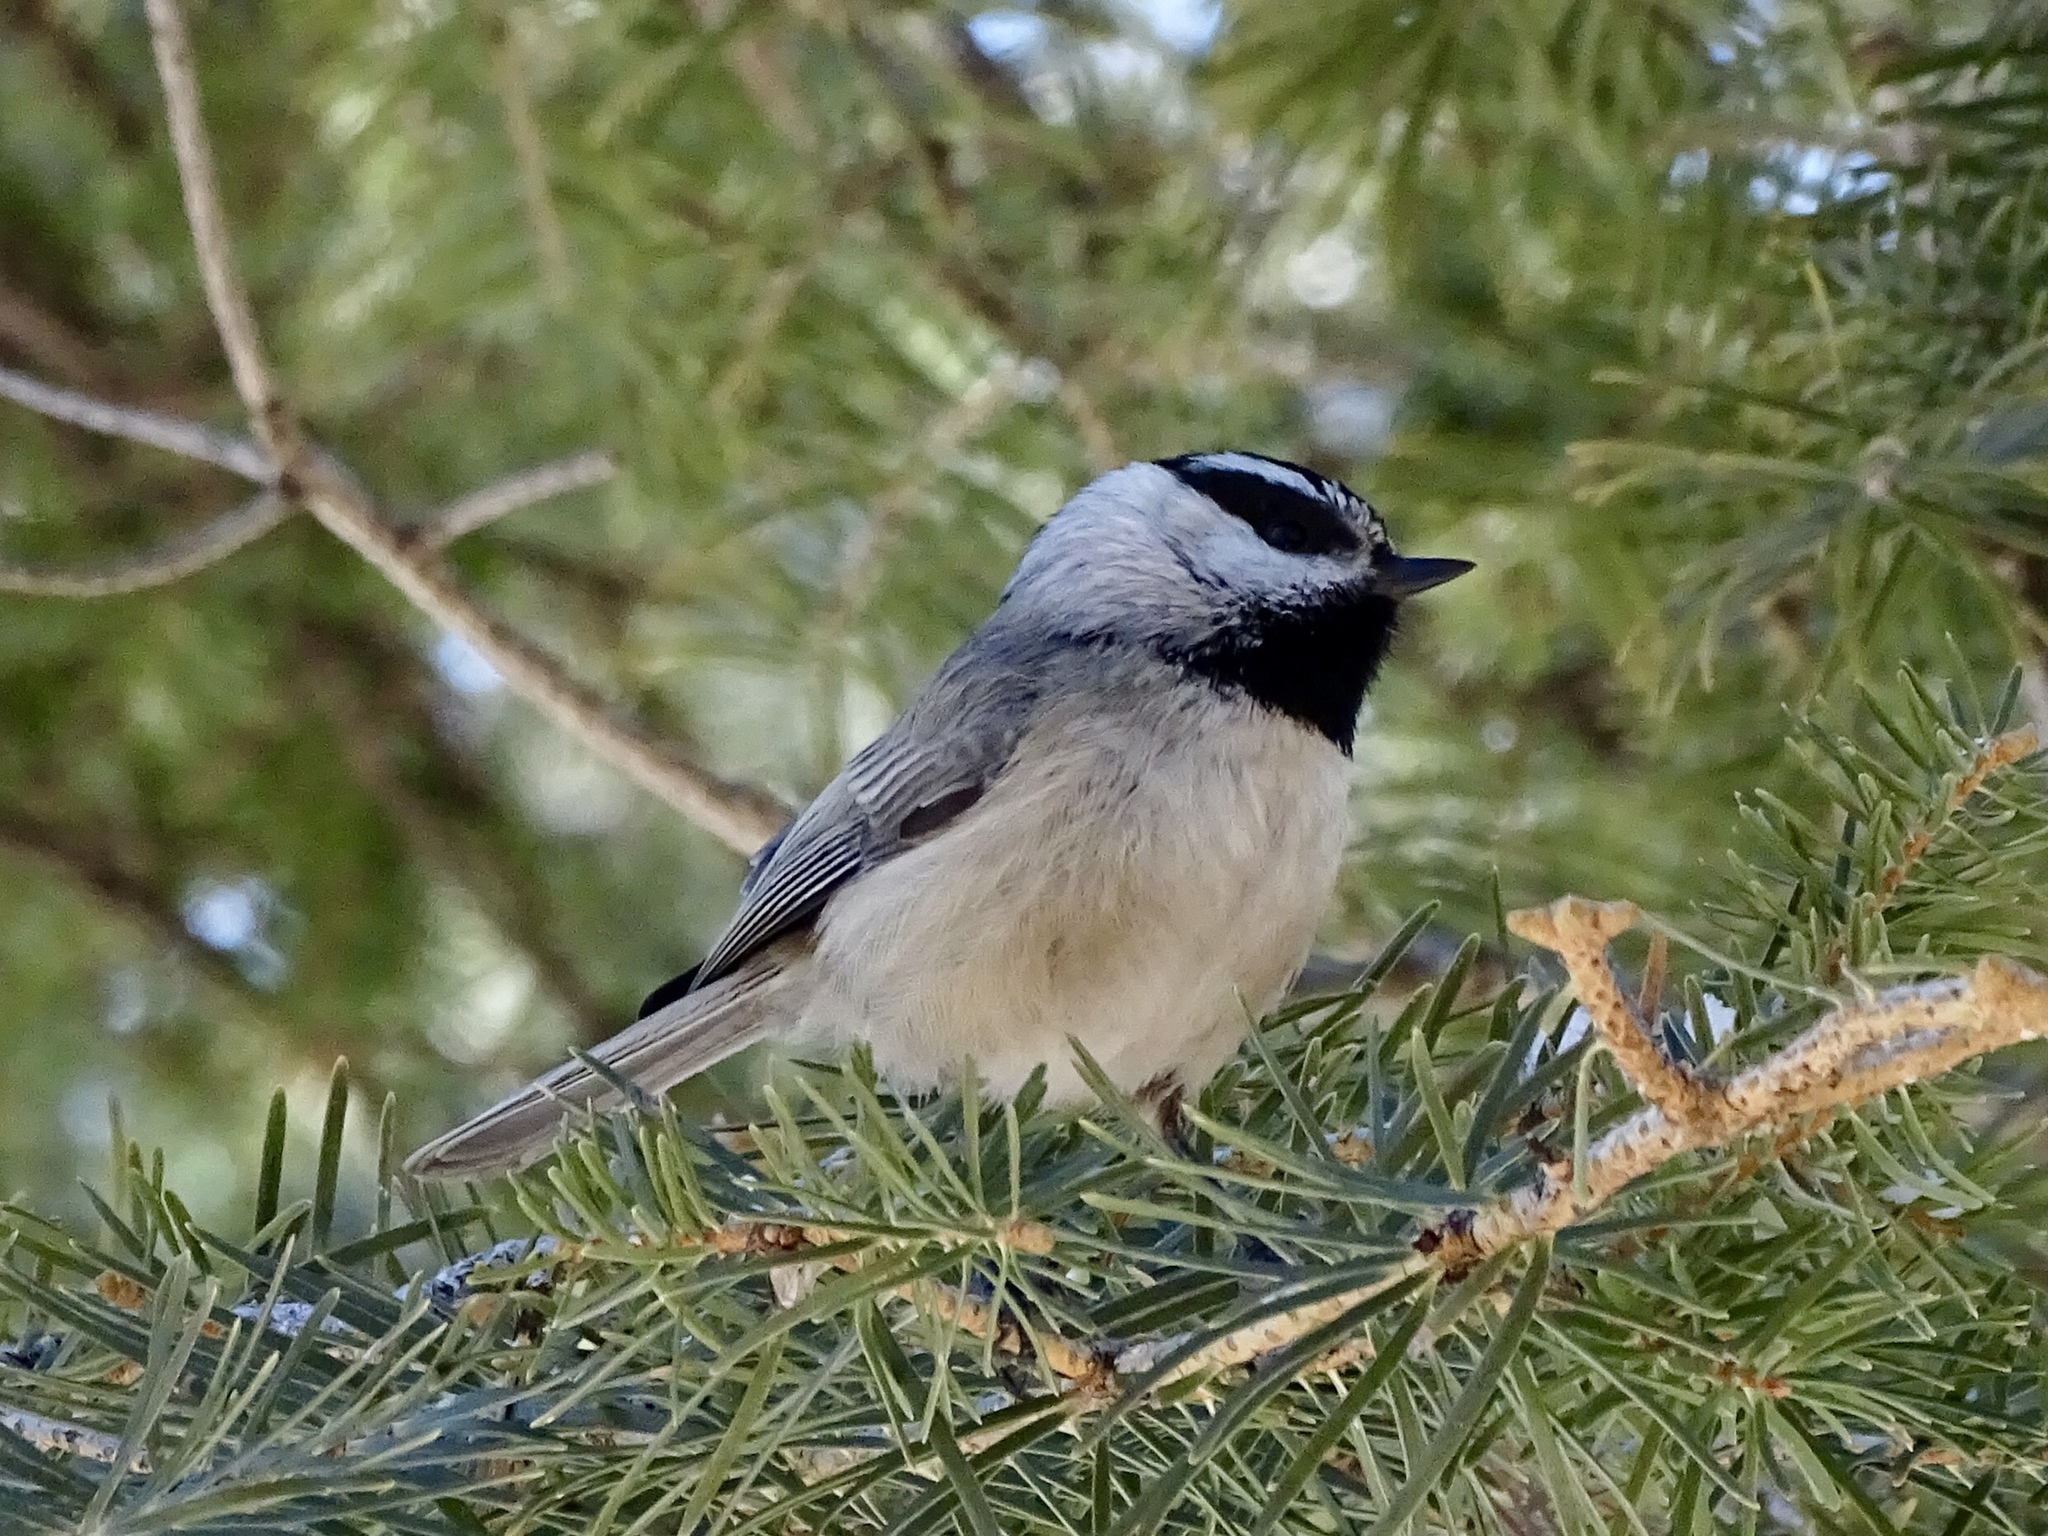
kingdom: Animalia
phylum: Chordata
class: Aves
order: Passeriformes
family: Paridae
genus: Poecile
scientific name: Poecile gambeli
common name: Mountain chickadee
